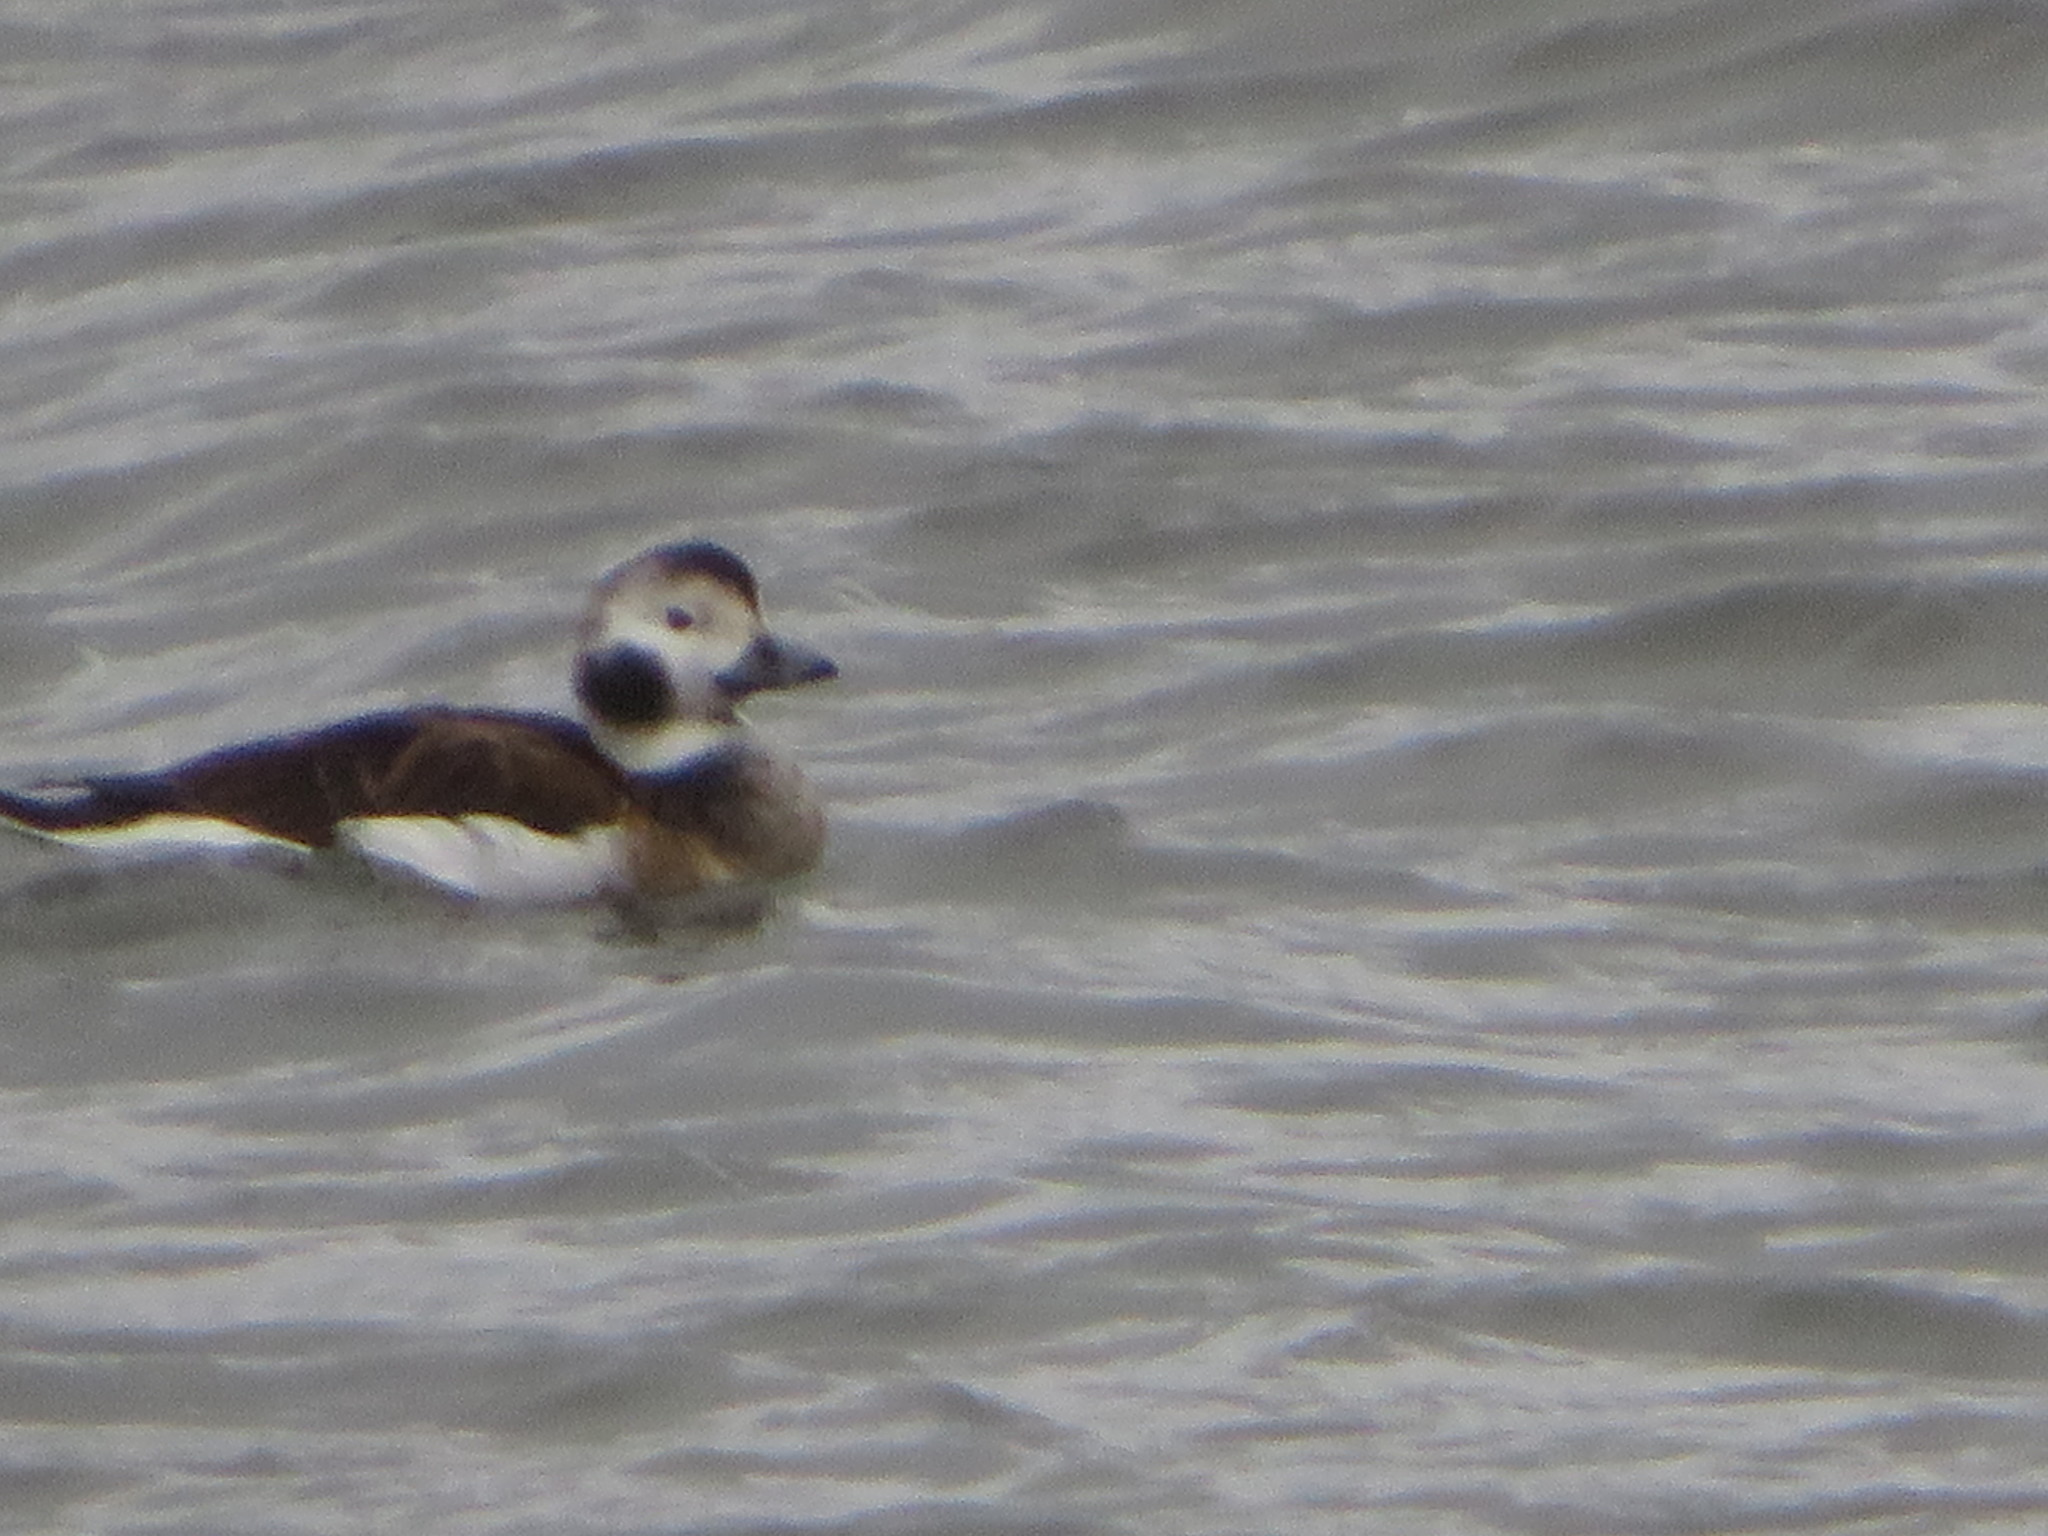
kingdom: Animalia
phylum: Chordata
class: Aves
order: Anseriformes
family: Anatidae
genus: Clangula
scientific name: Clangula hyemalis
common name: Long-tailed duck
